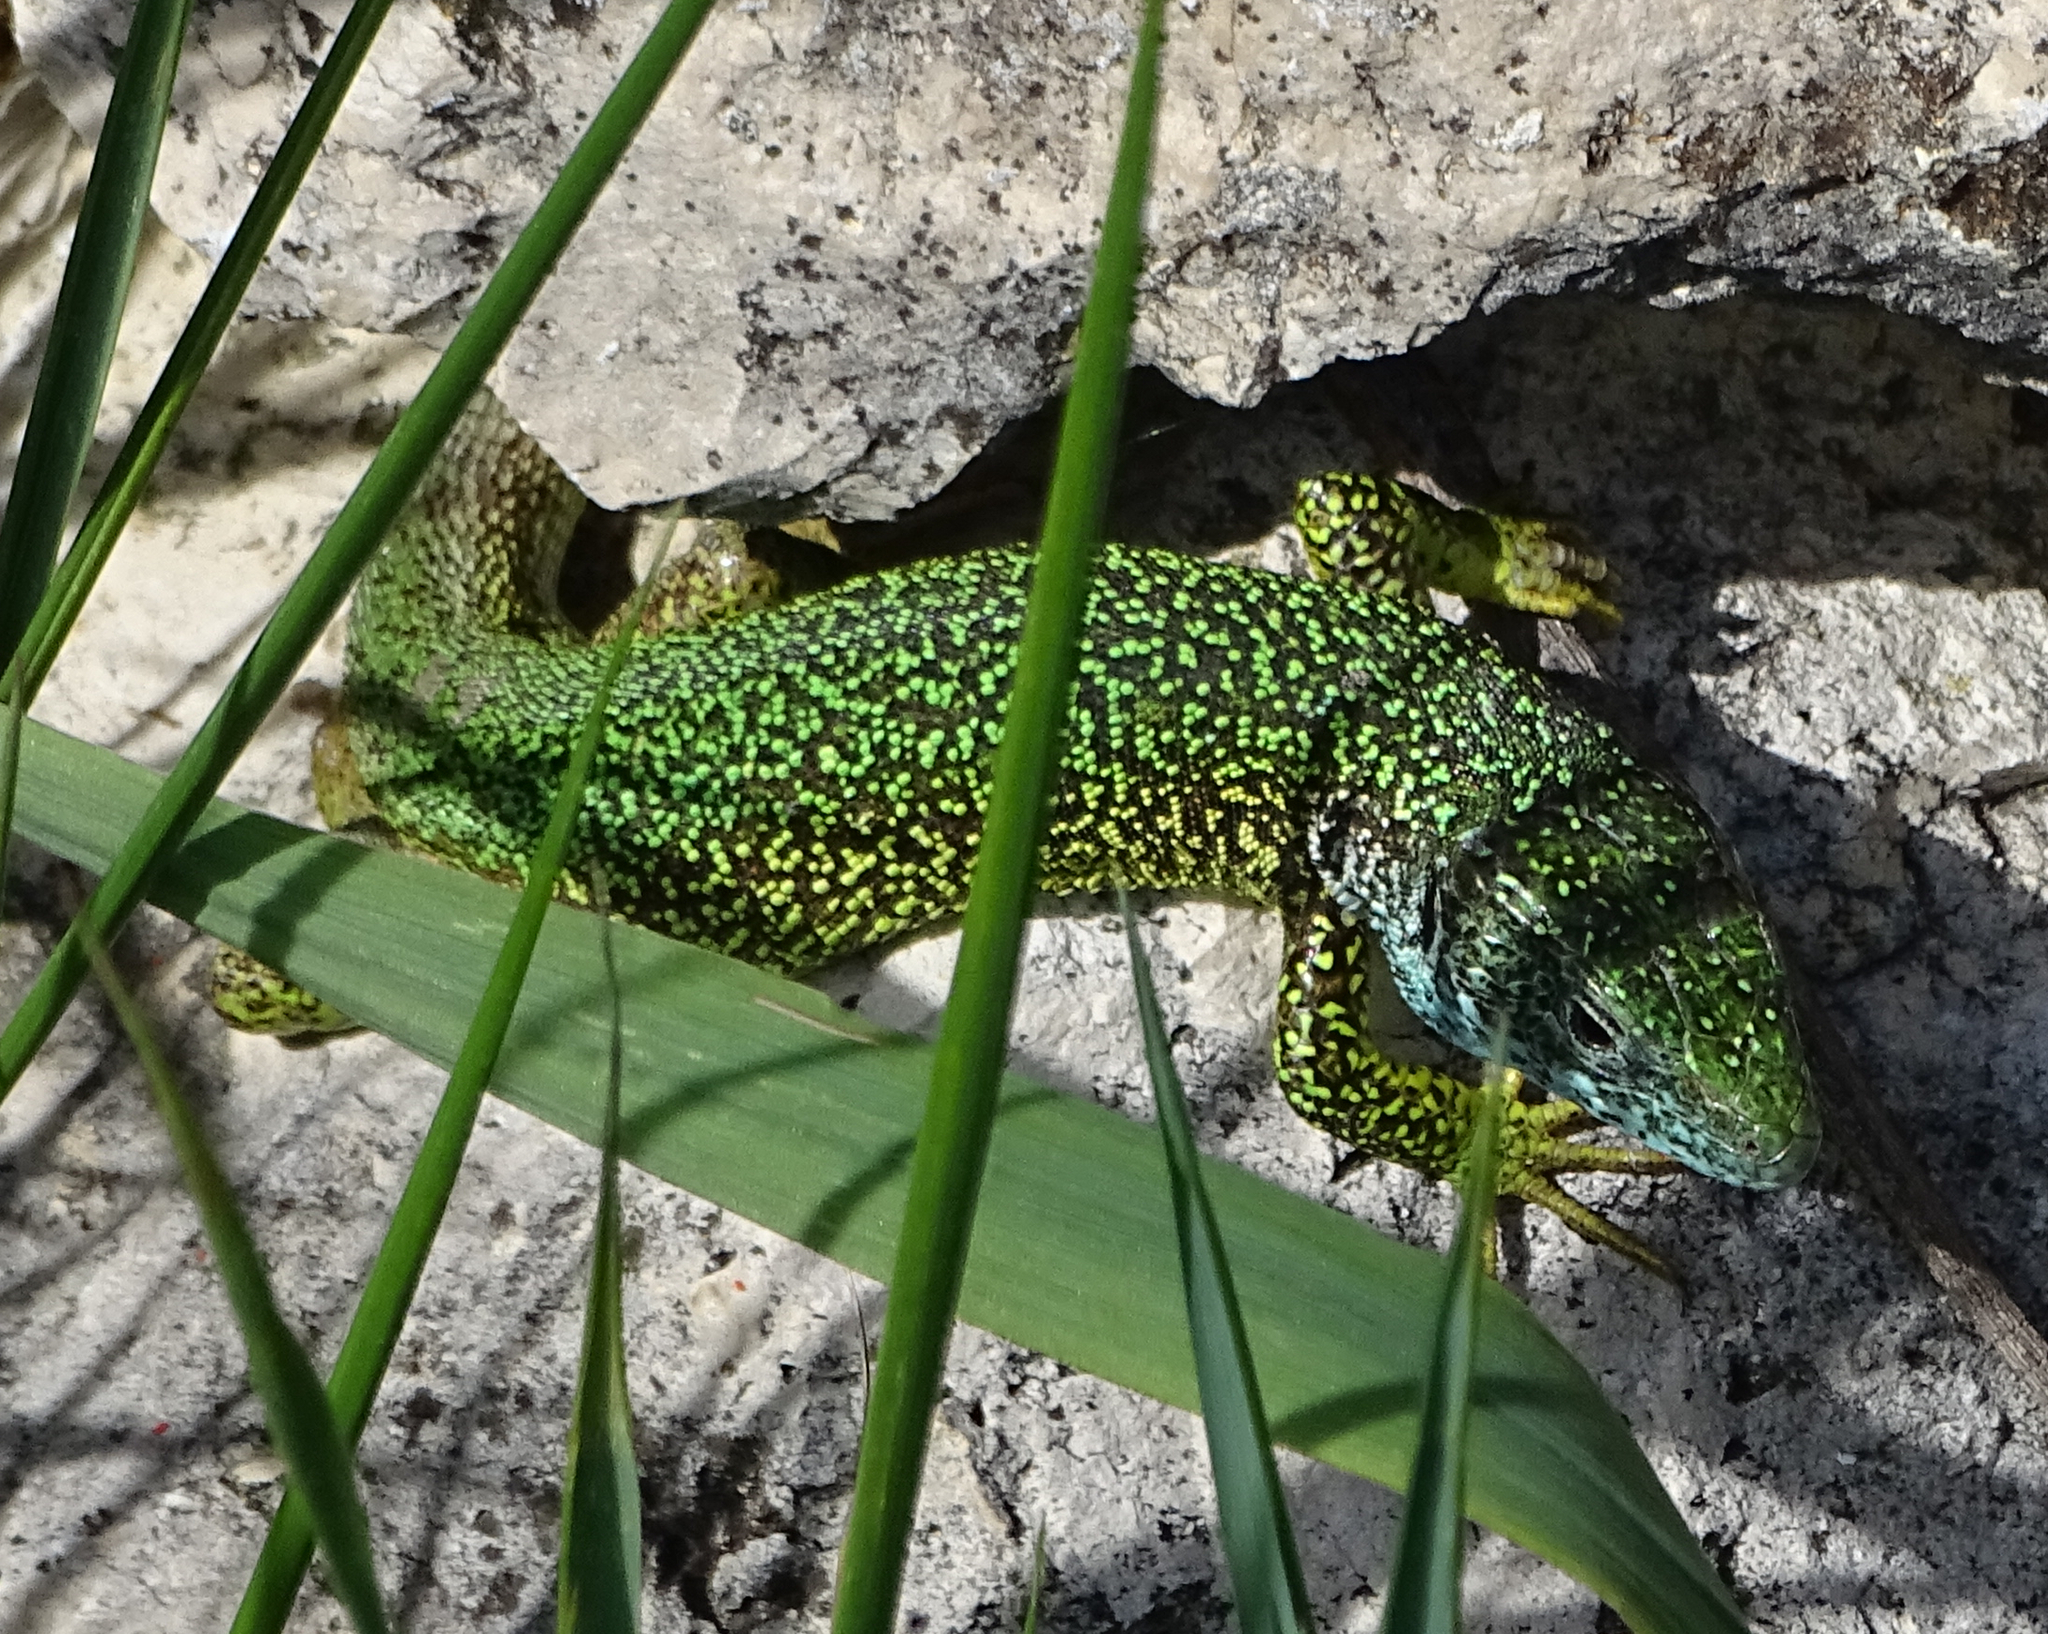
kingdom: Animalia
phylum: Chordata
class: Squamata
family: Lacertidae
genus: Lacerta
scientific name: Lacerta viridis
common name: European green lizard
